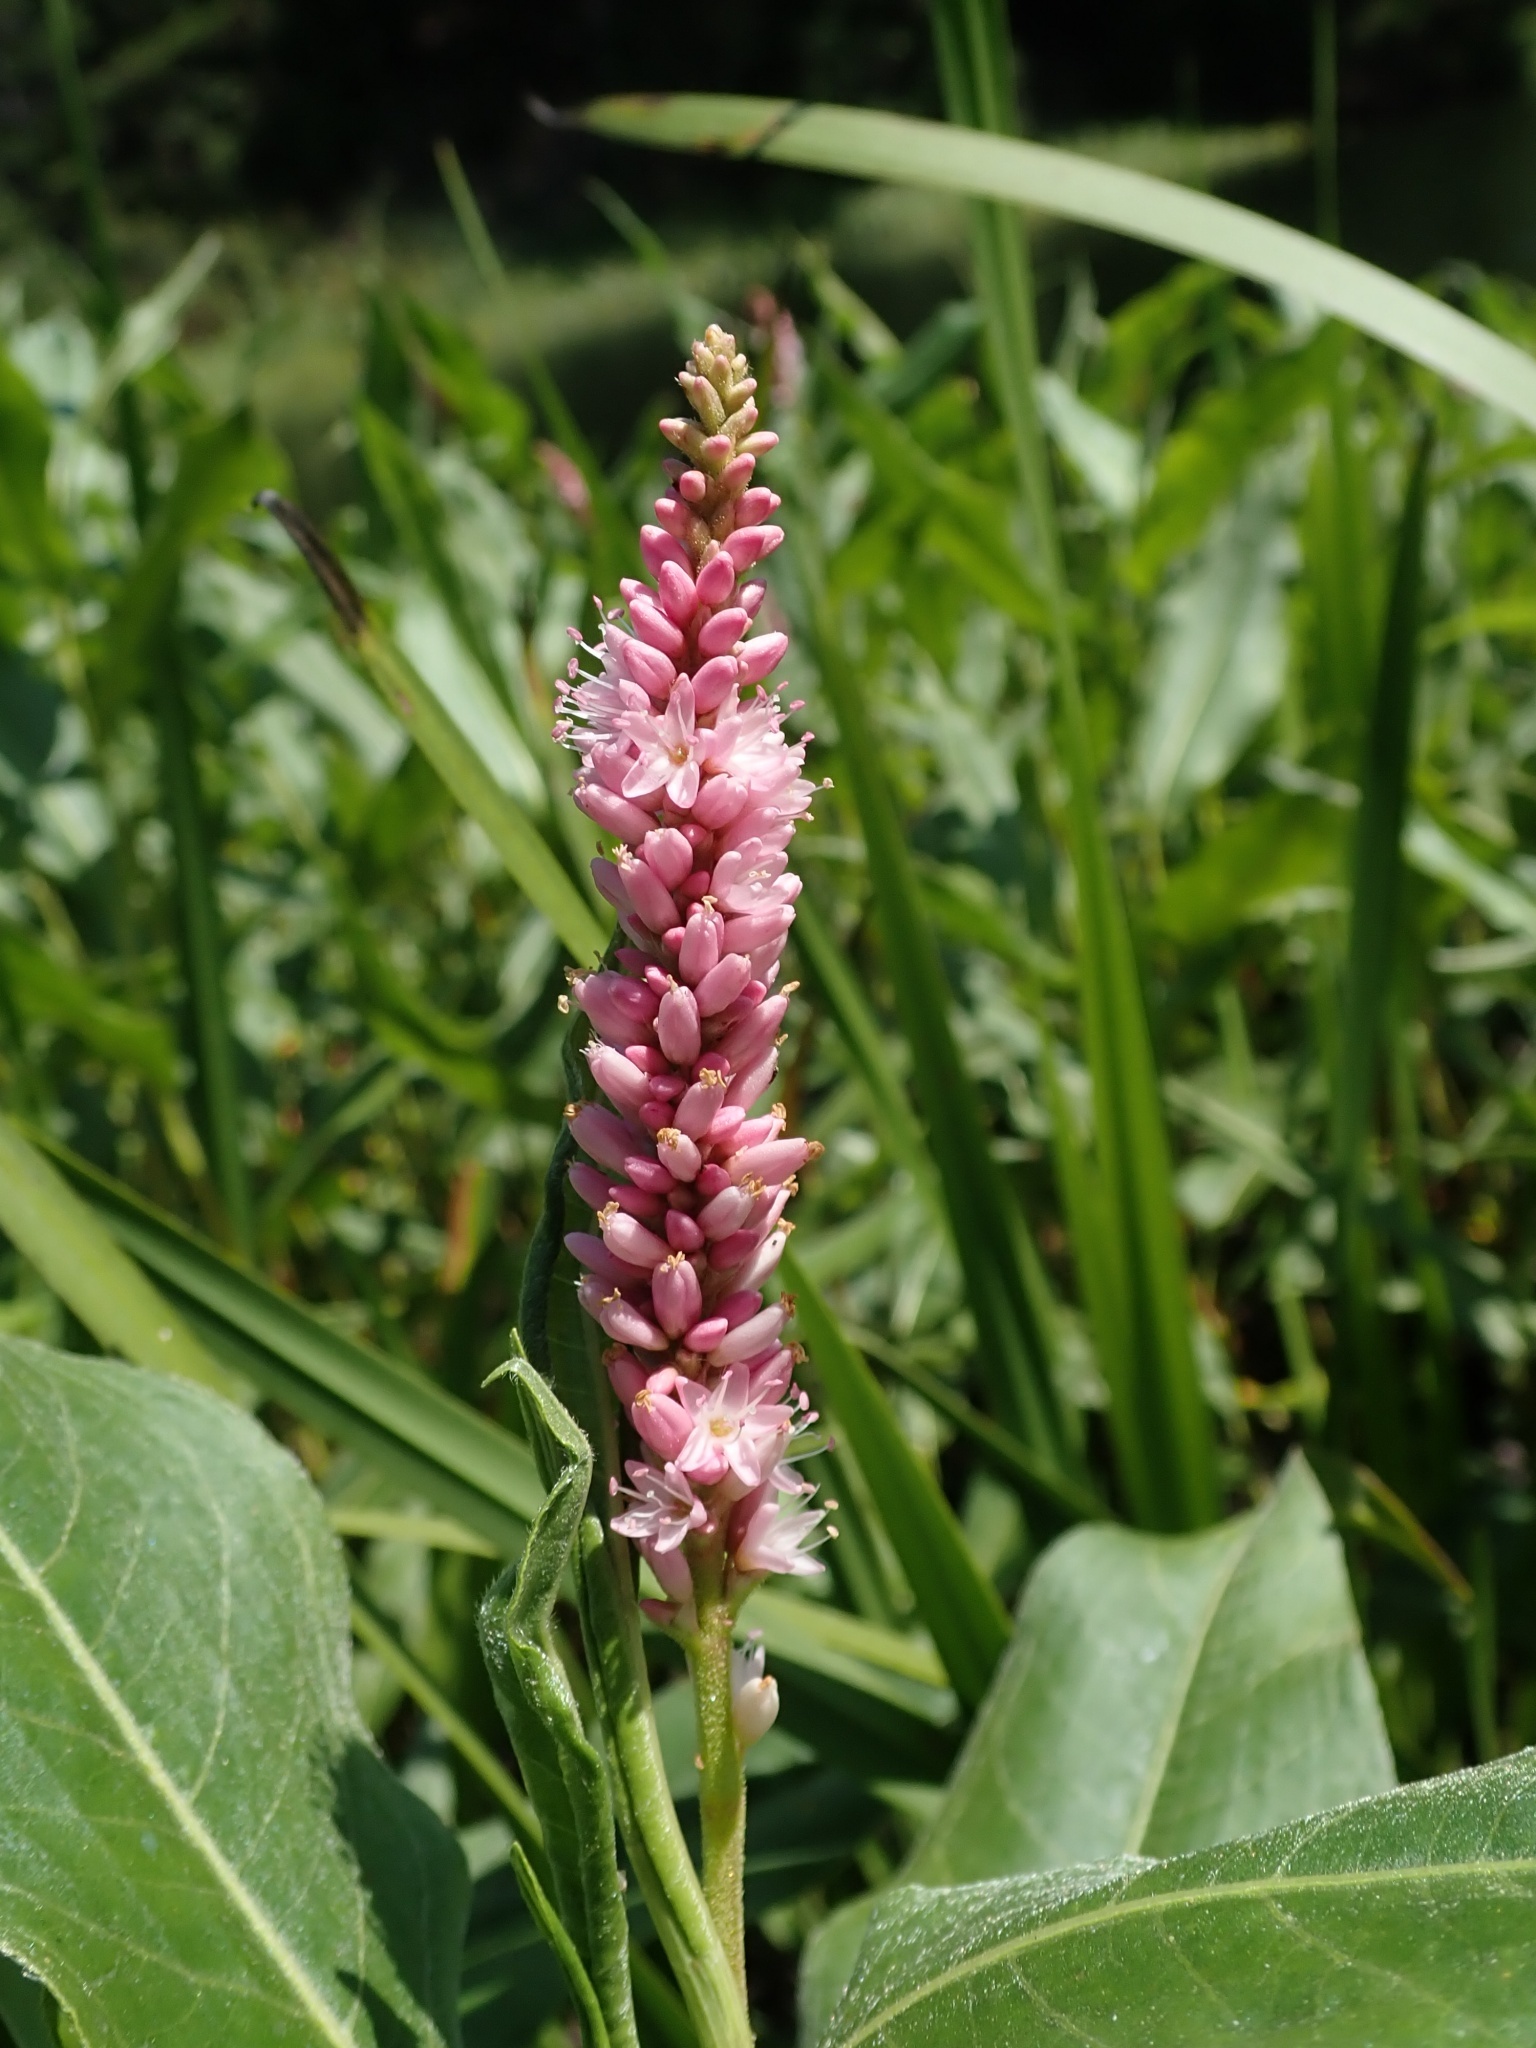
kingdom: Plantae
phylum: Tracheophyta
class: Magnoliopsida
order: Caryophyllales
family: Polygonaceae
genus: Persicaria
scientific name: Persicaria amphibia
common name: Amphibious bistort
